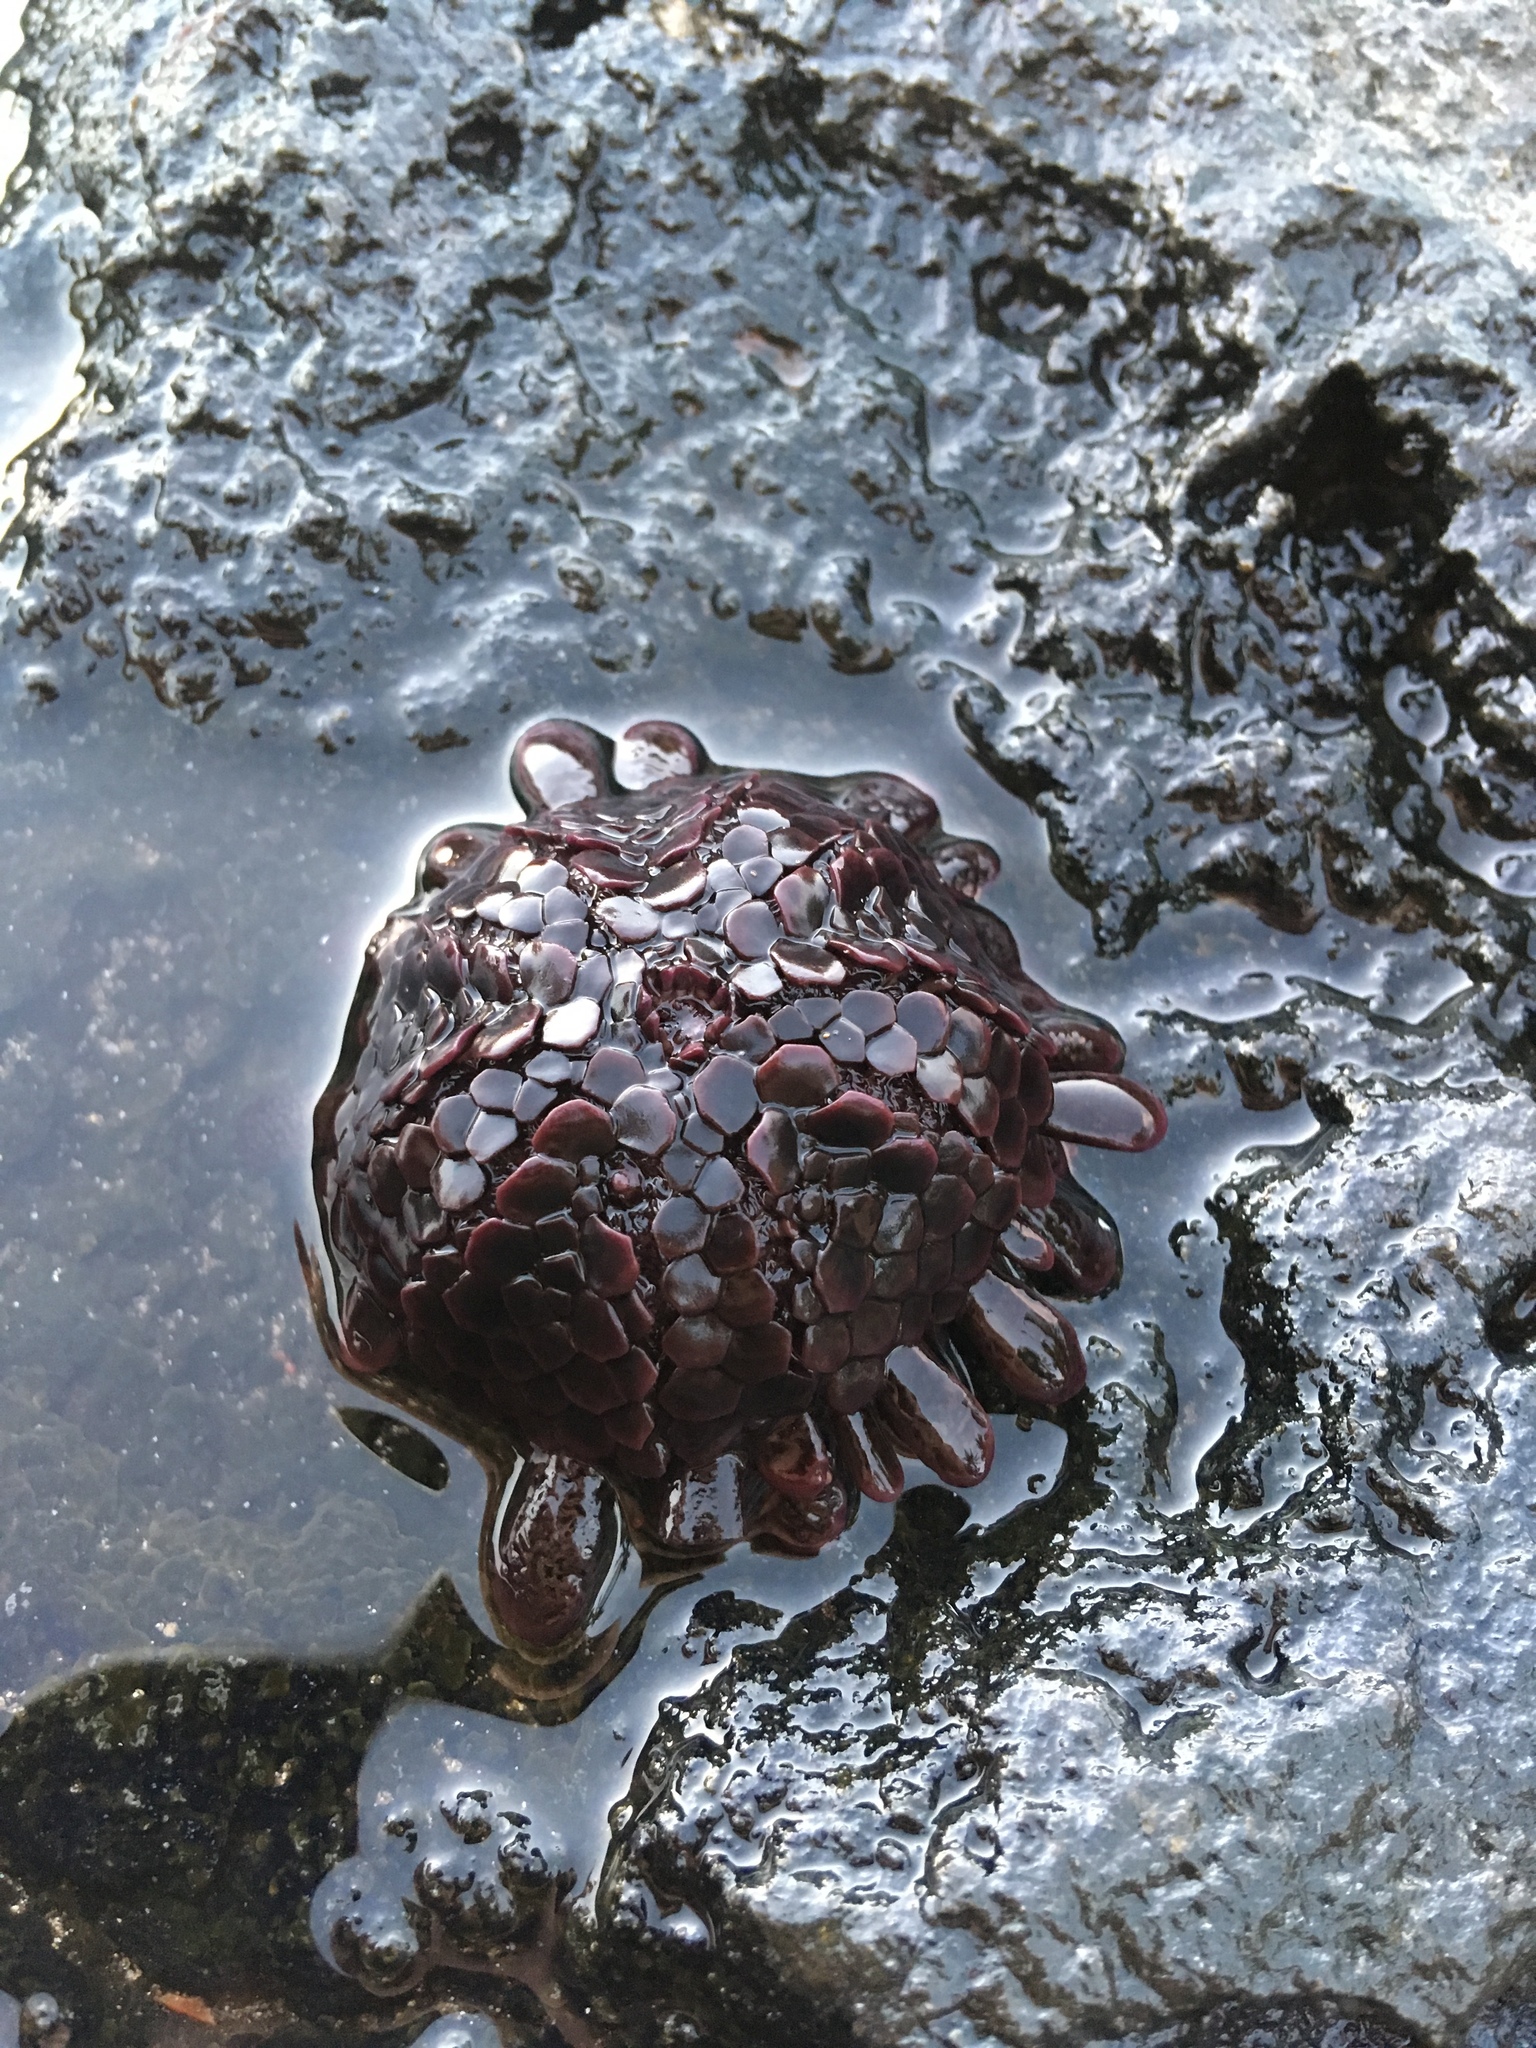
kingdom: Animalia
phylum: Echinodermata
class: Echinoidea
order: Camarodonta
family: Echinometridae
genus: Colobocentrotus
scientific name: Colobocentrotus atratus
